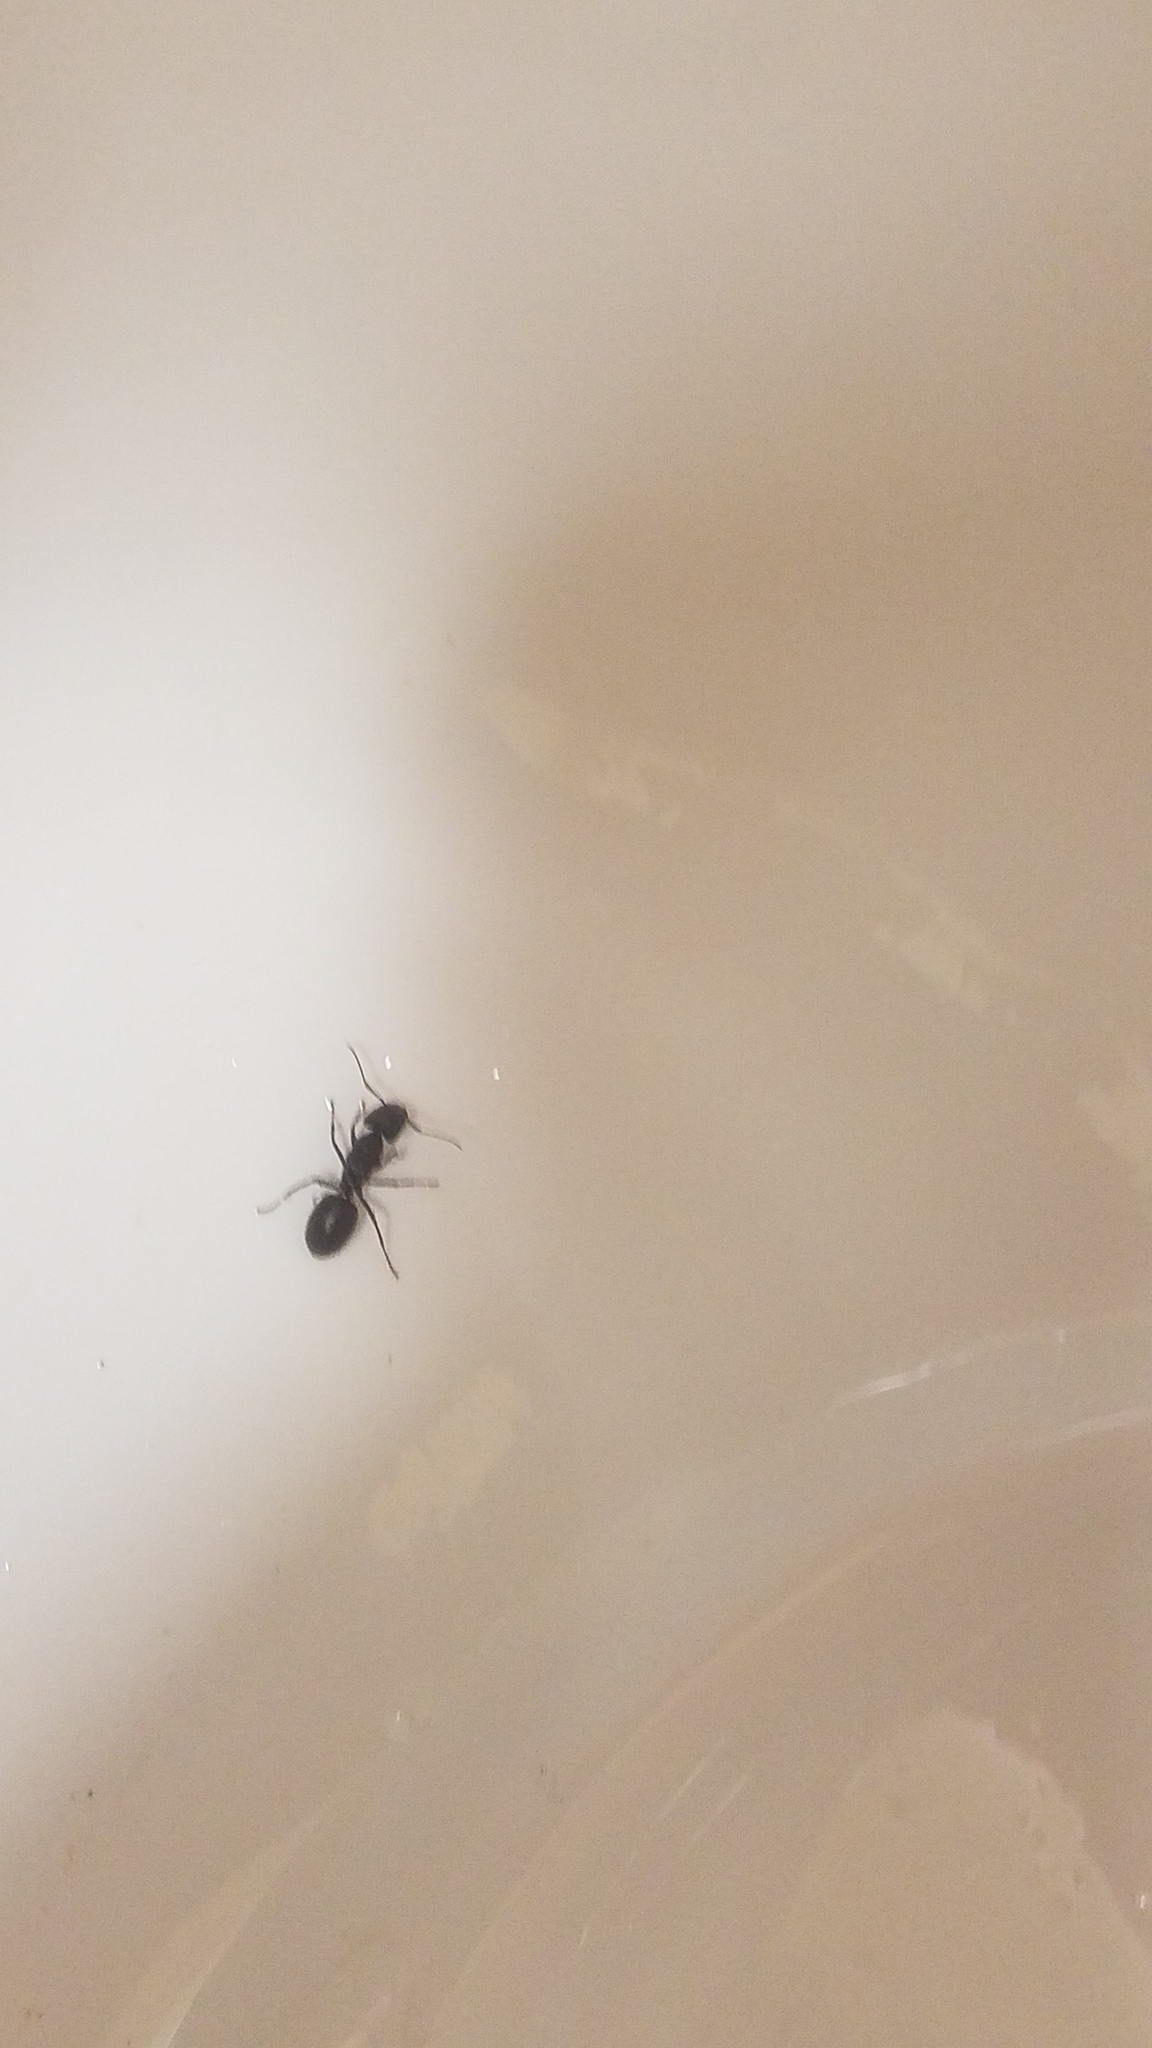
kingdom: Animalia
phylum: Arthropoda
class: Insecta
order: Hymenoptera
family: Formicidae
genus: Camponotus
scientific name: Camponotus pennsylvanicus
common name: Black carpenter ant
